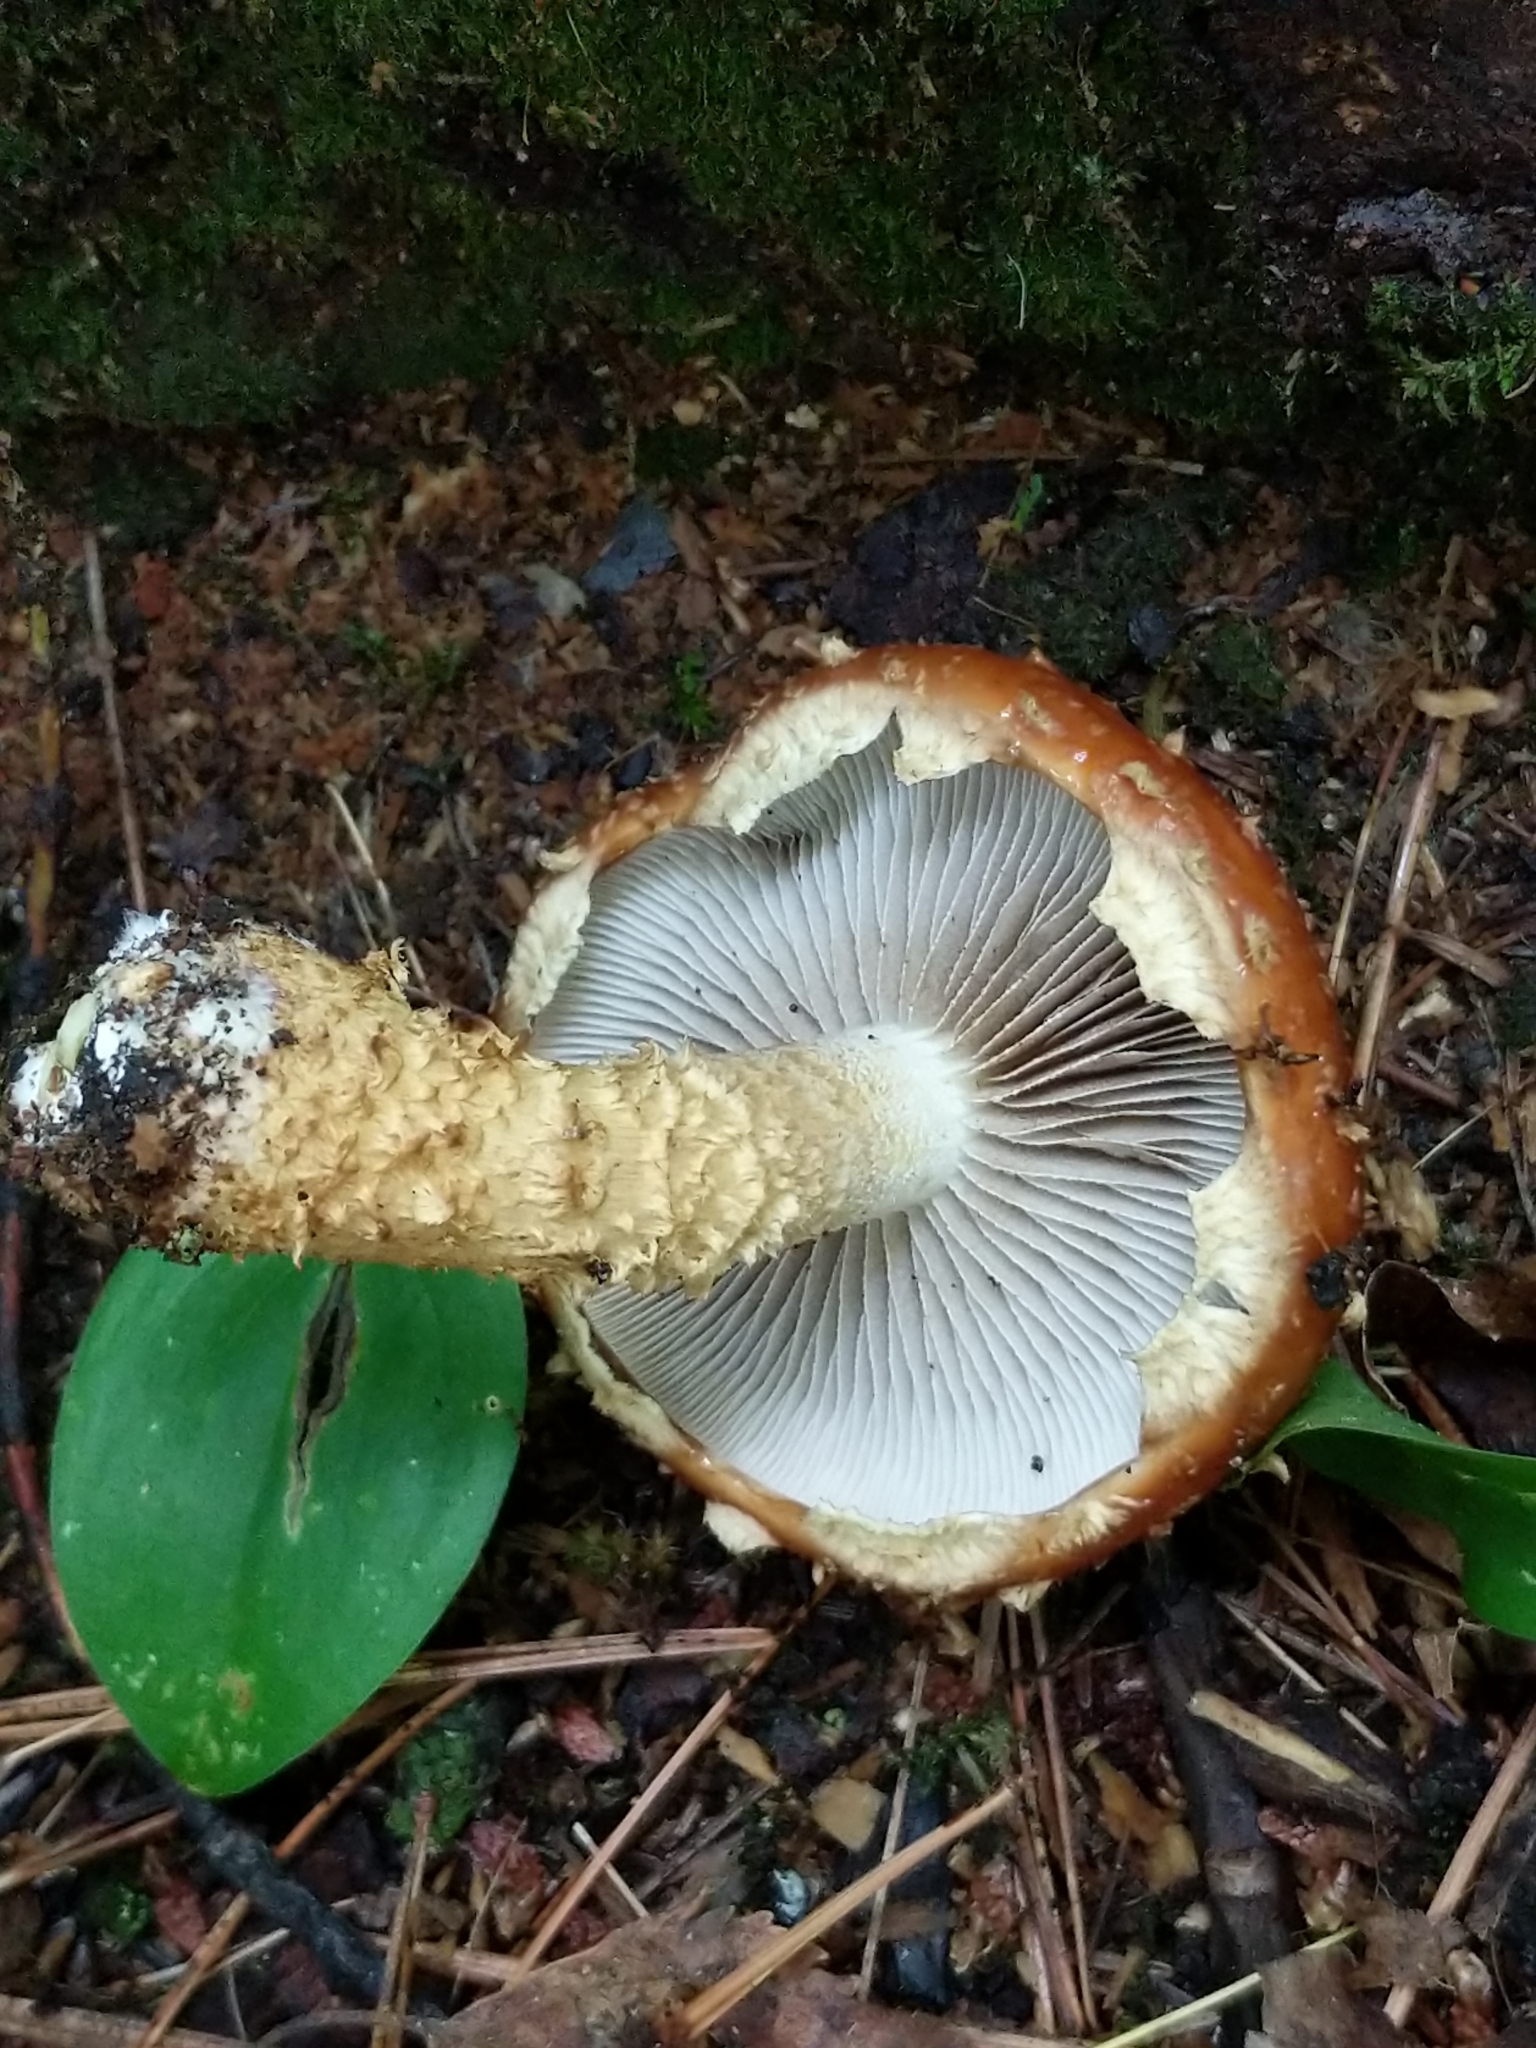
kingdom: Fungi
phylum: Basidiomycota
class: Agaricomycetes
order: Agaricales
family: Tubariaceae
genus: Hemistropharia
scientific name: Hemistropharia albocrenulata
